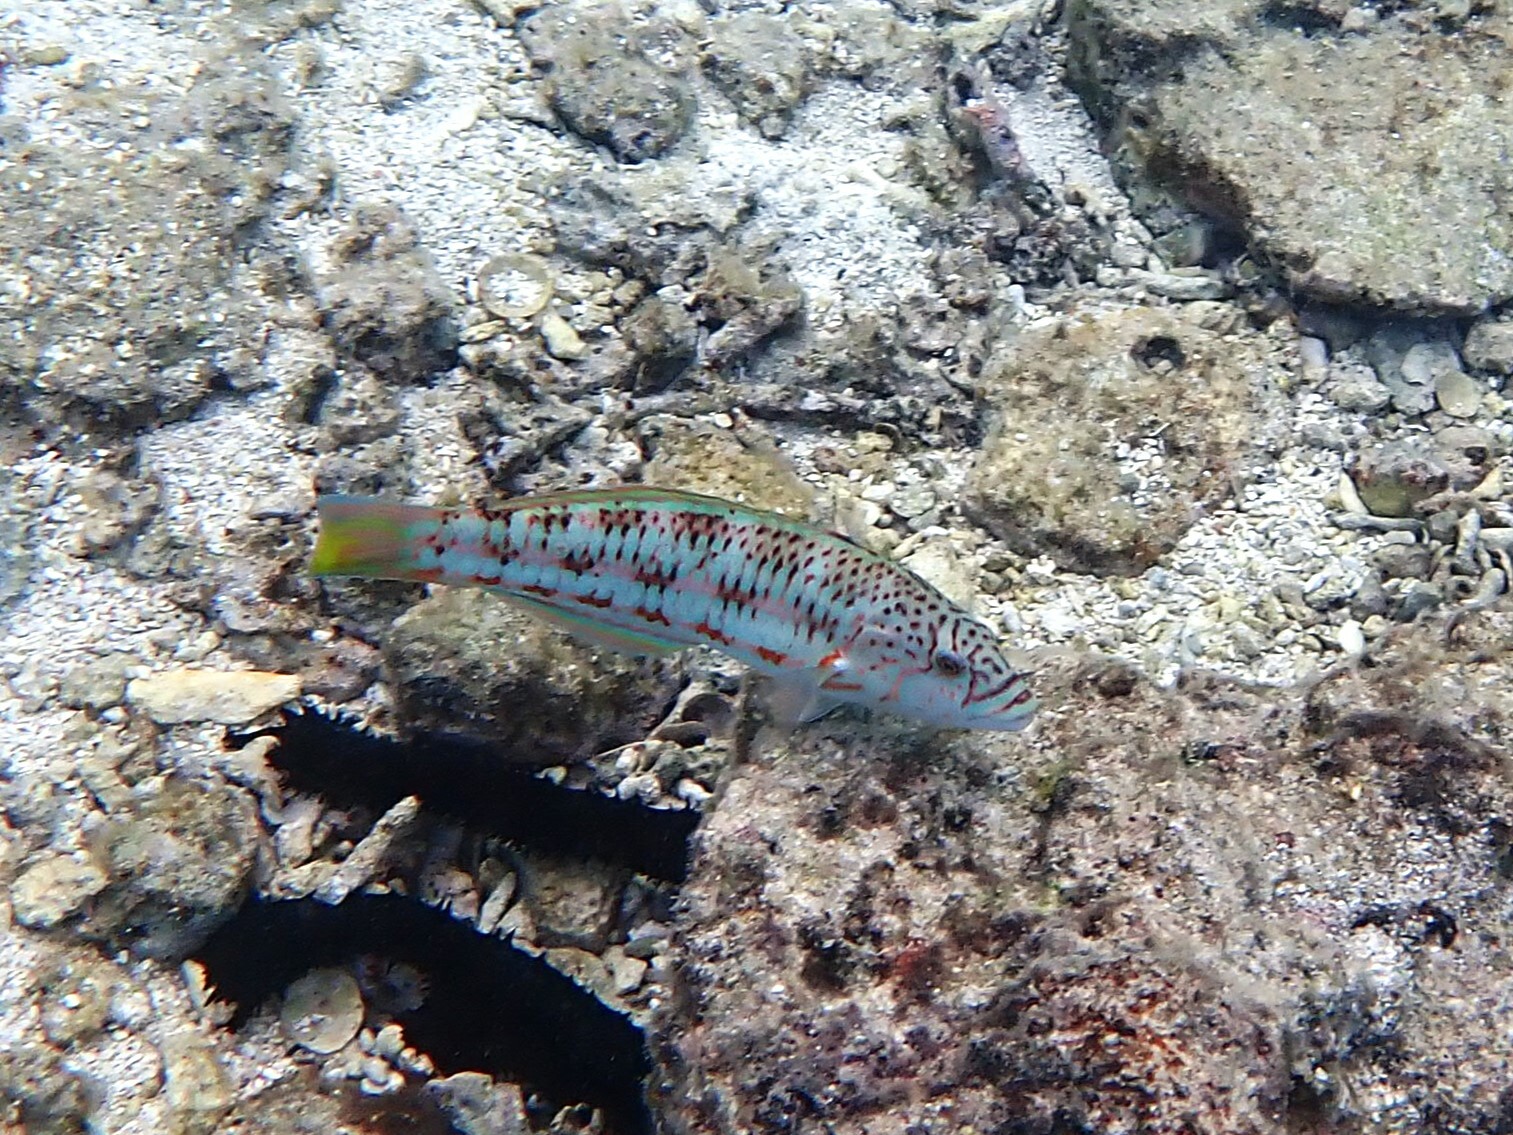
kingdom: Animalia
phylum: Chordata
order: Perciformes
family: Labridae
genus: Thalassoma
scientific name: Thalassoma purpureum
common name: Parrotfish
